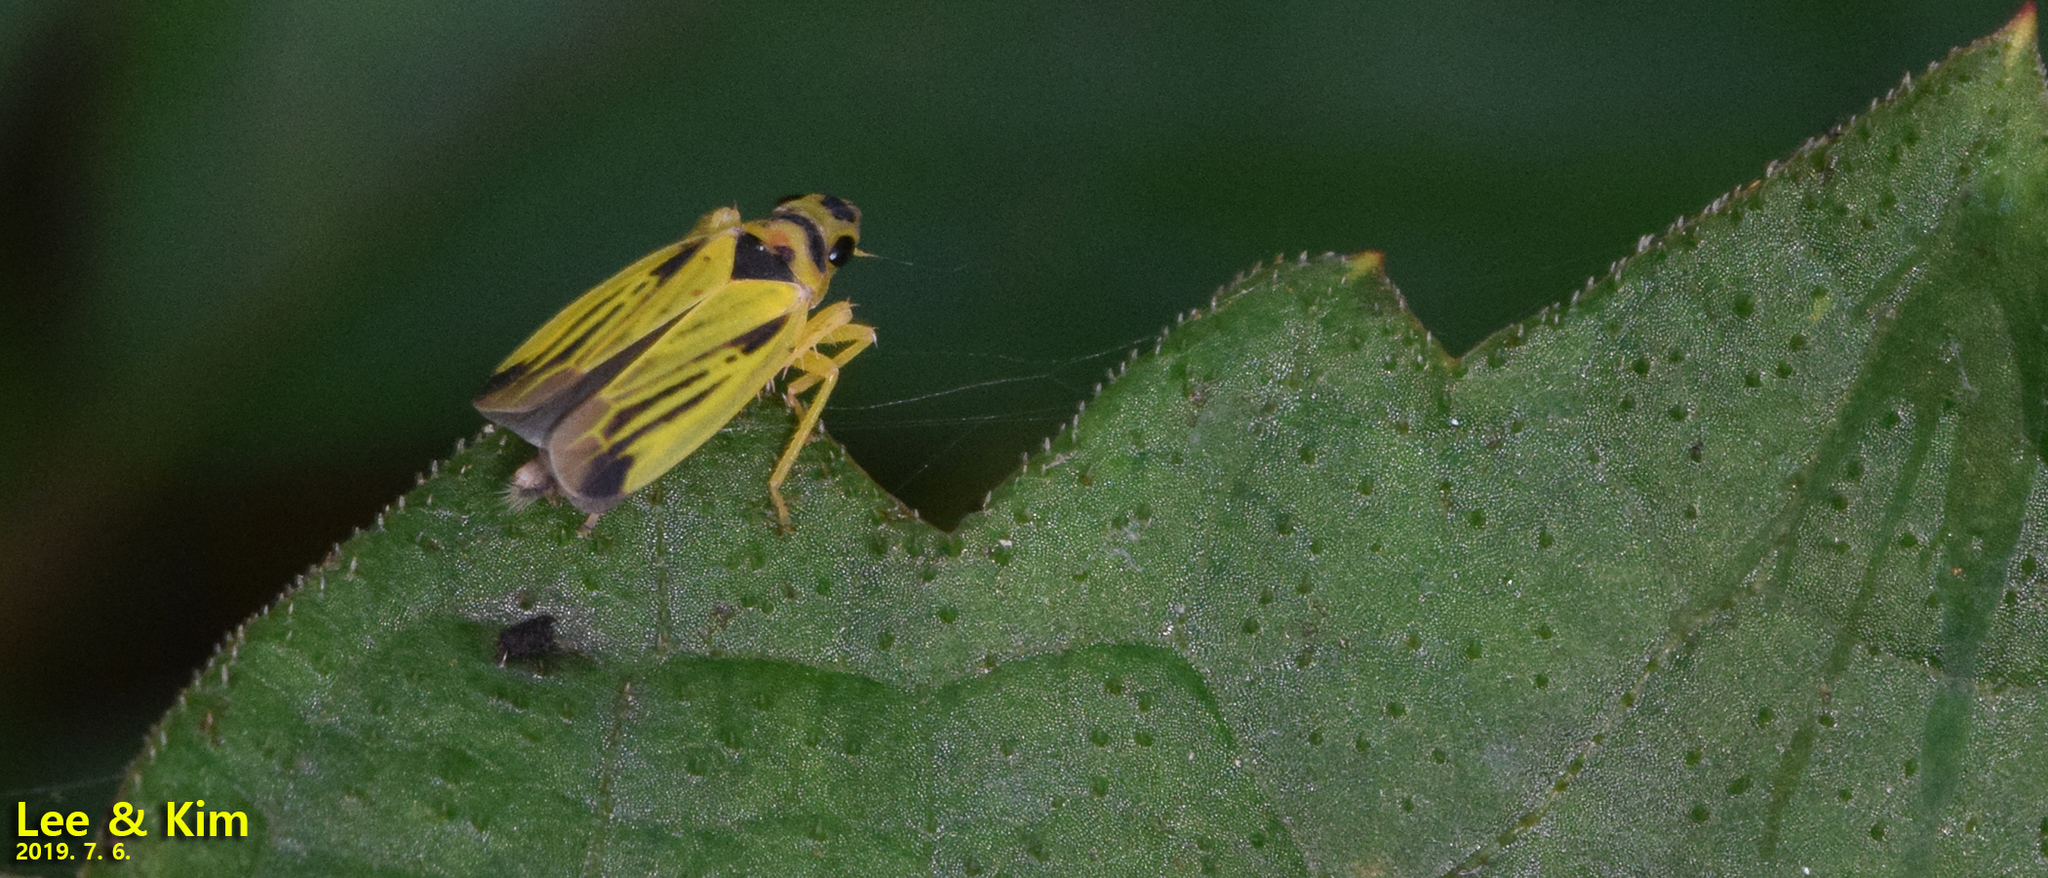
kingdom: Animalia
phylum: Arthropoda
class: Insecta
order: Hemiptera
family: Cicadellidae
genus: Evacanthus
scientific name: Evacanthus ogumae
